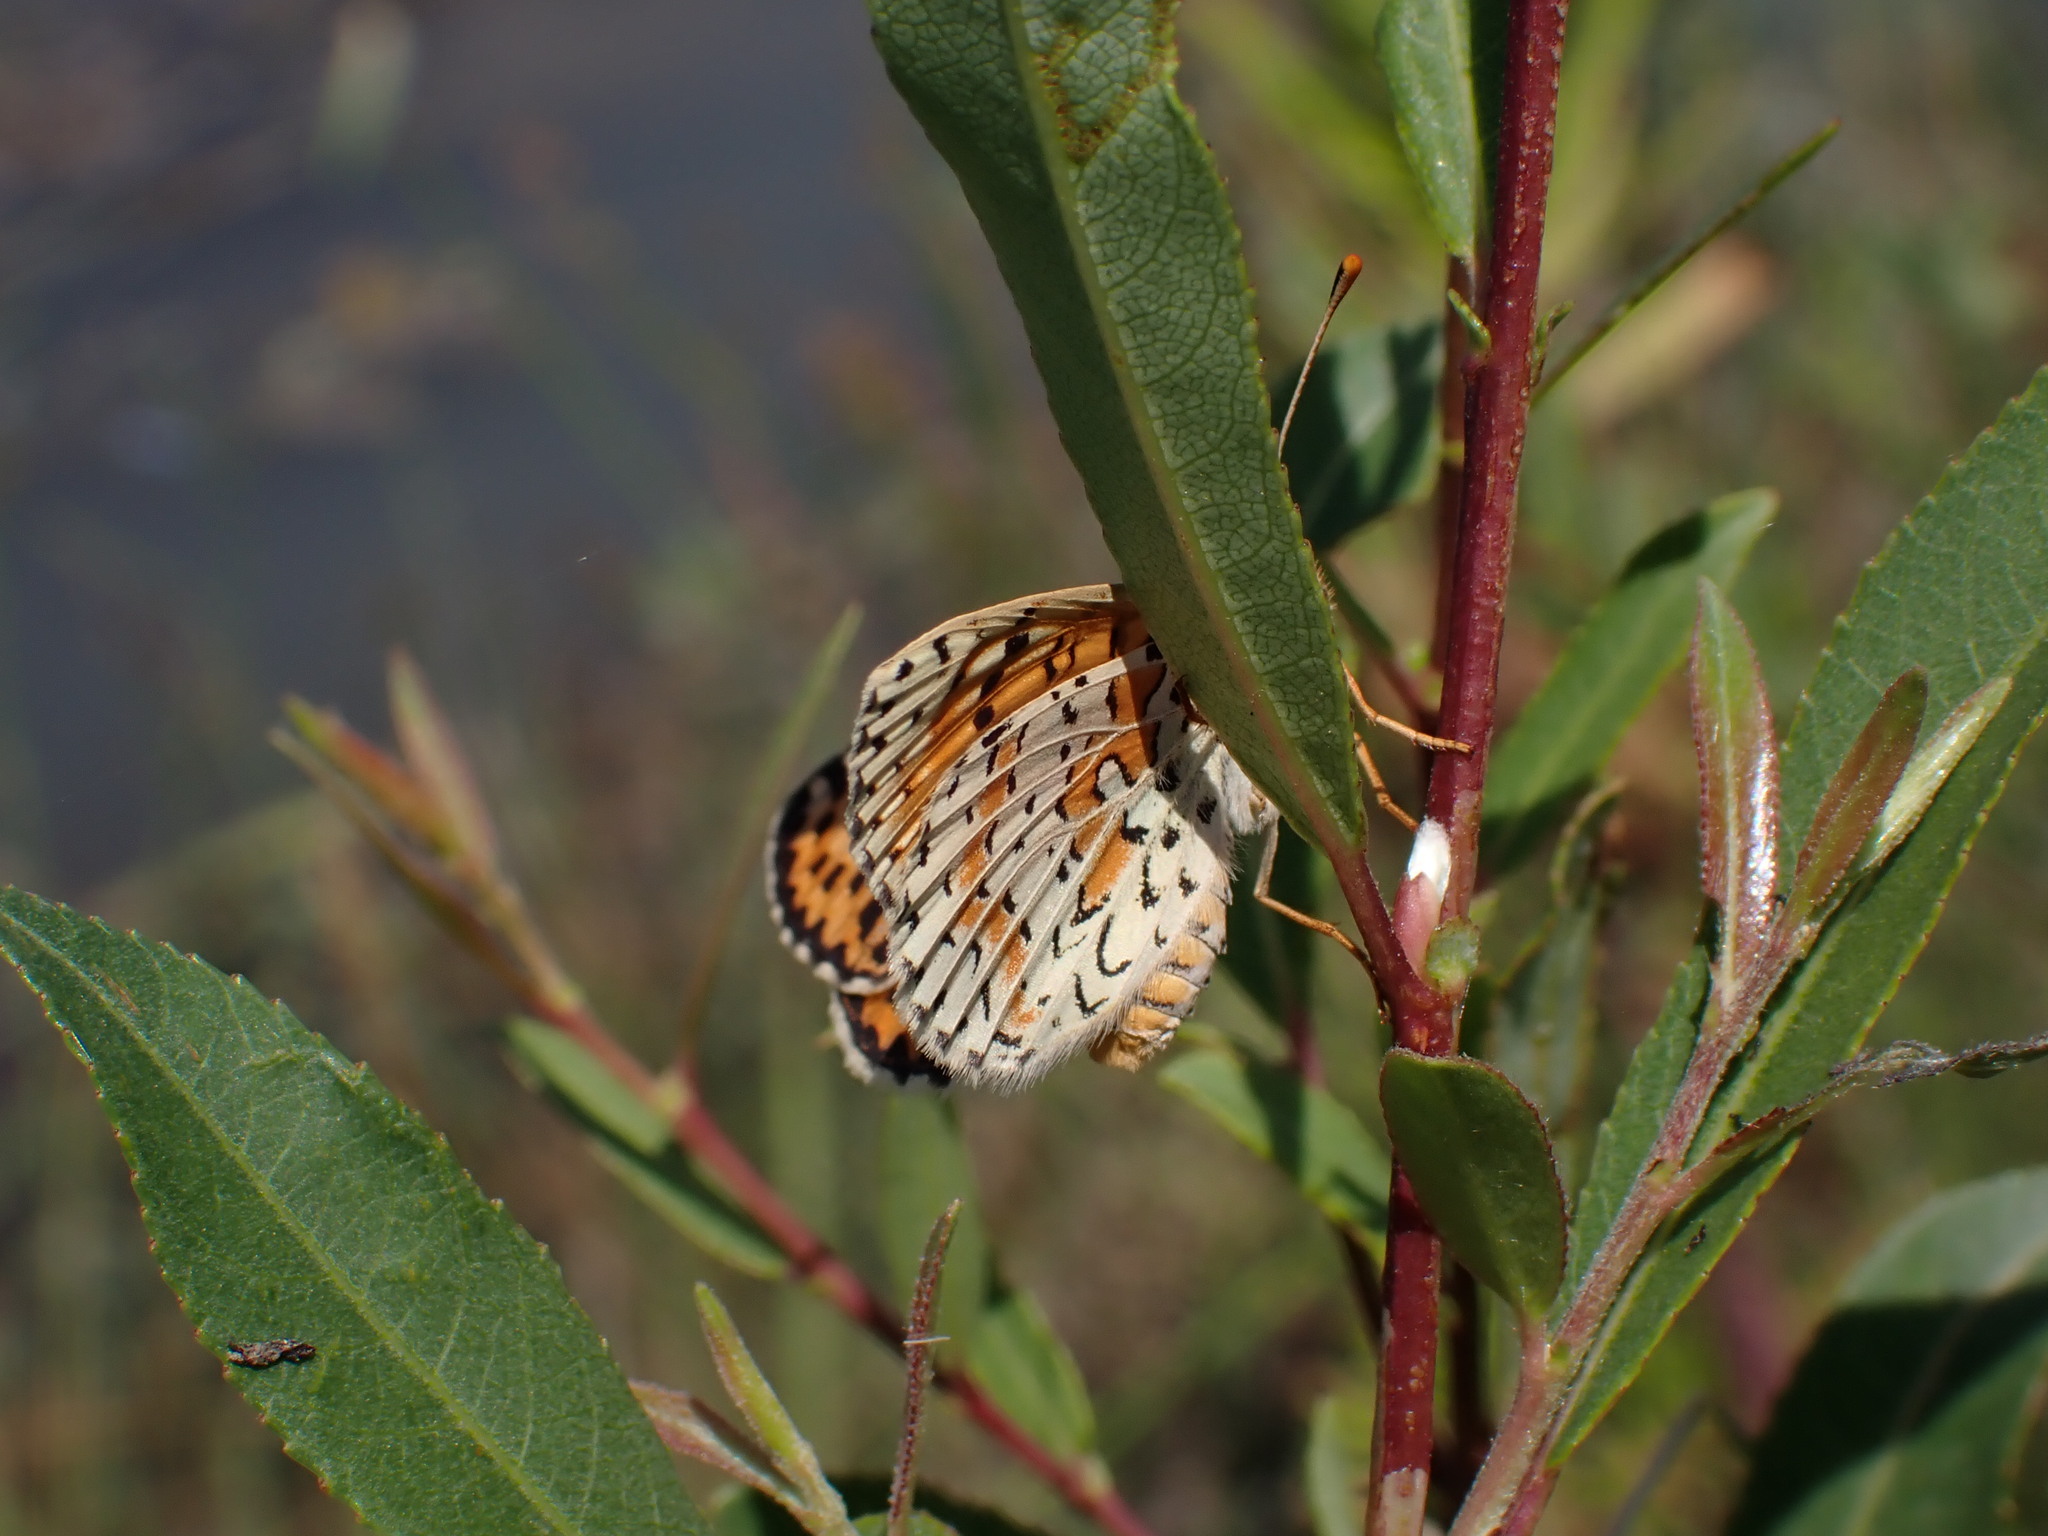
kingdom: Animalia
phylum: Arthropoda
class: Insecta
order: Lepidoptera
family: Nymphalidae
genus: Melitaea
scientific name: Melitaea didyma
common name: Spotted fritillary
